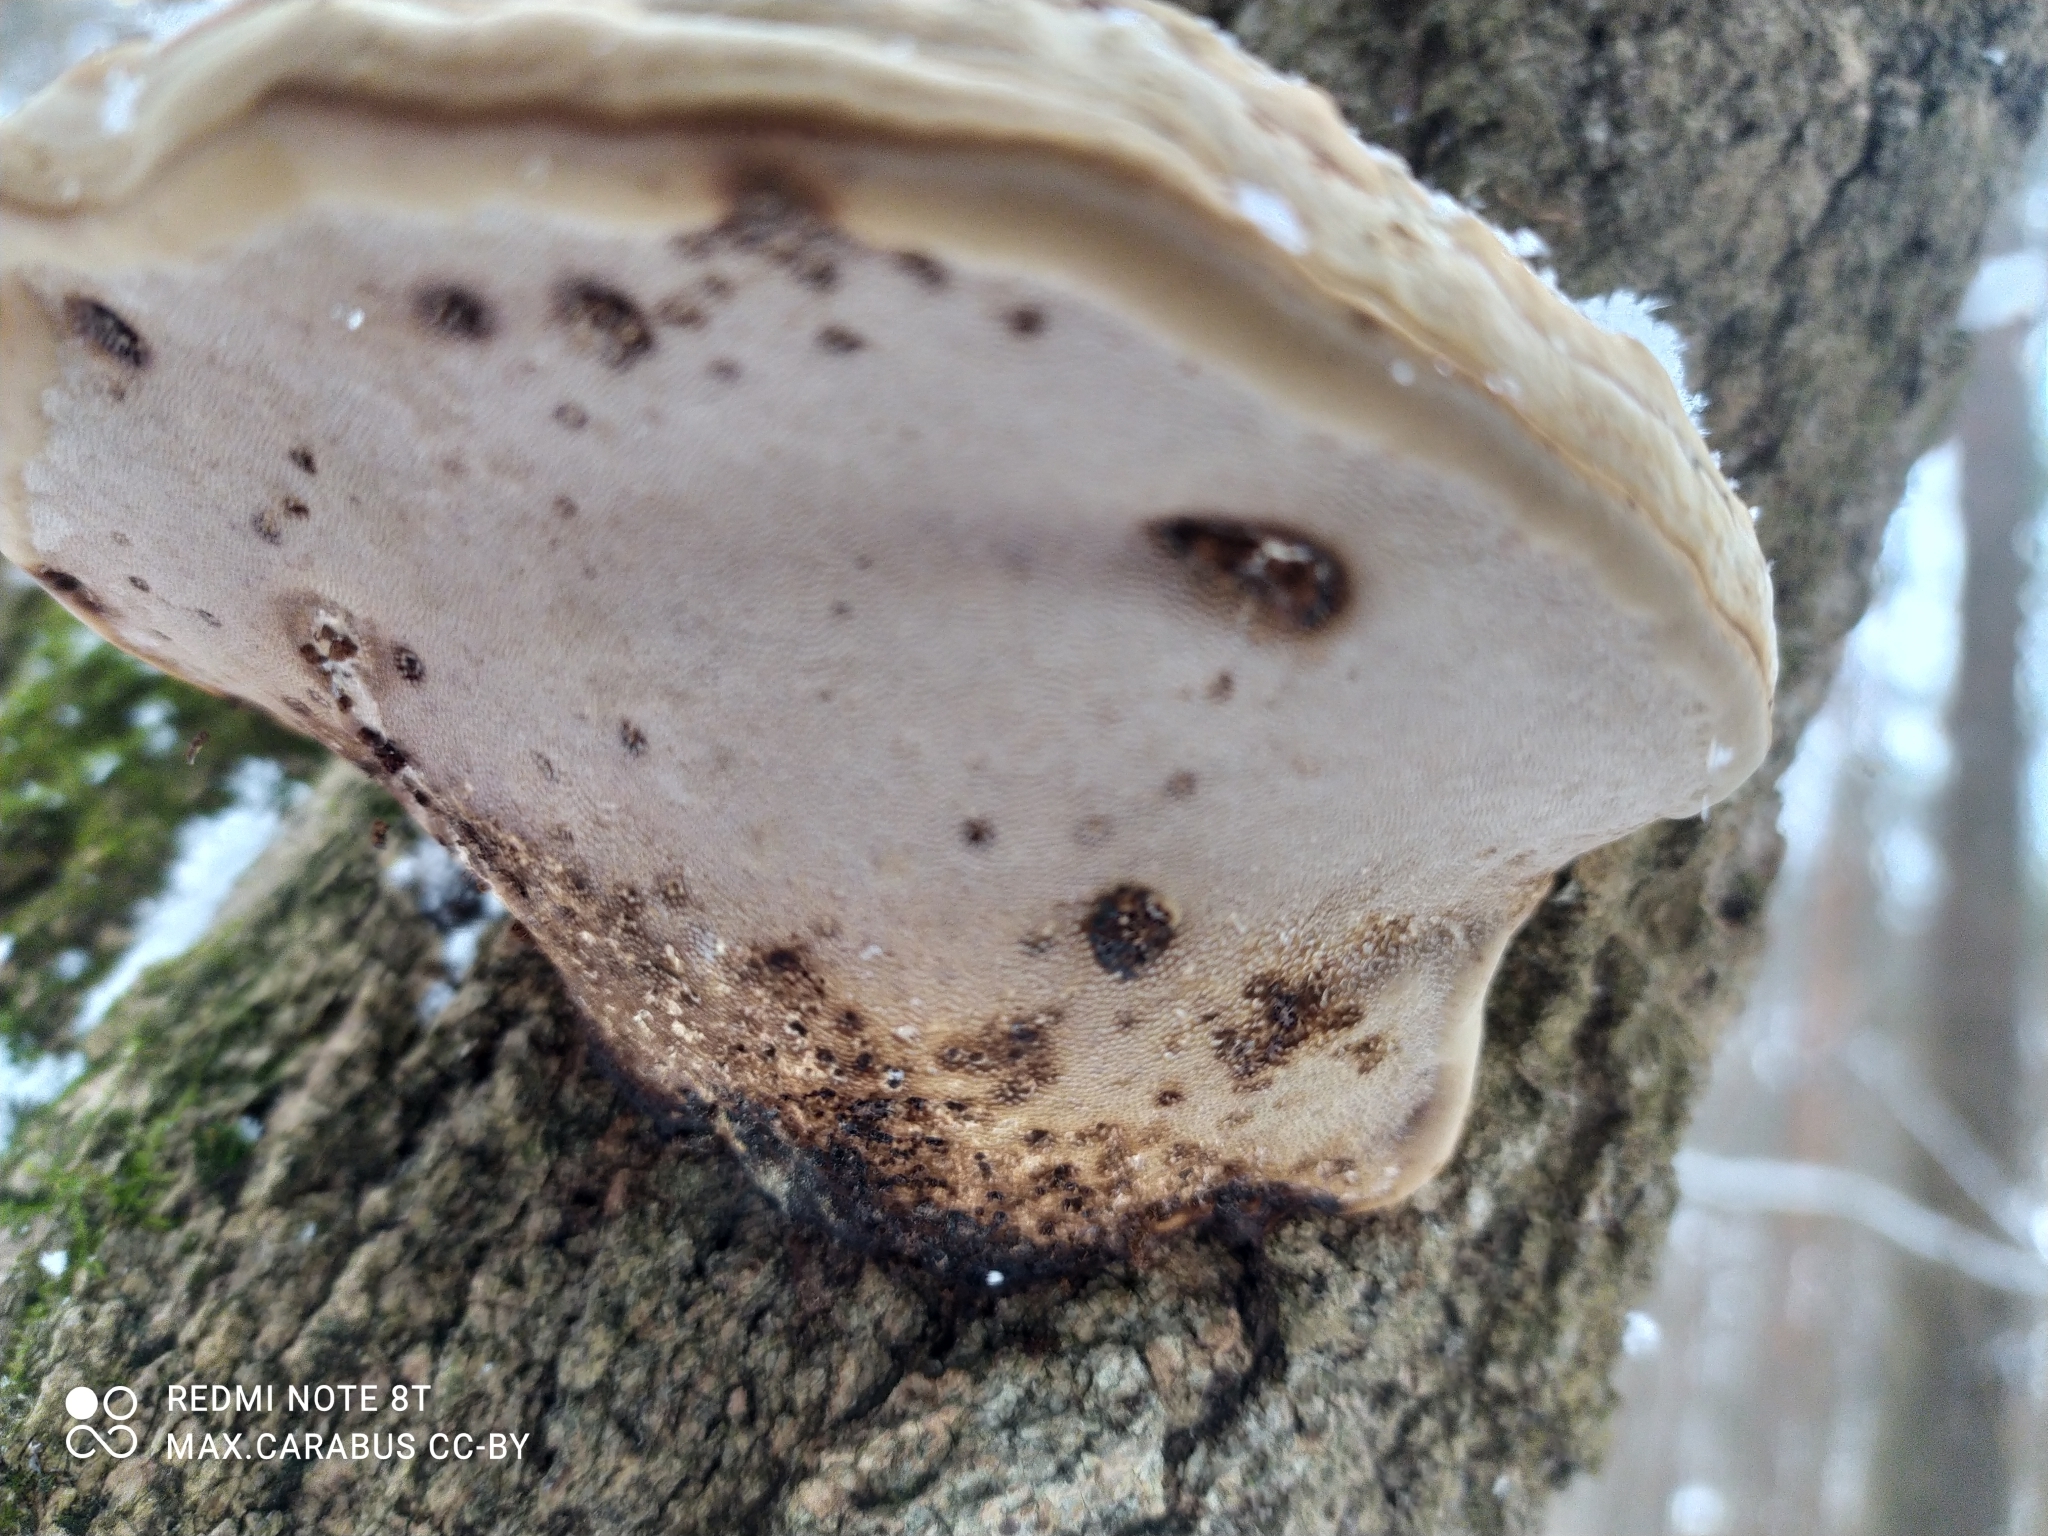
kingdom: Fungi
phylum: Basidiomycota
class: Agaricomycetes
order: Polyporales
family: Polyporaceae
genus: Fomes
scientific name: Fomes fomentarius
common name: Hoof fungus
